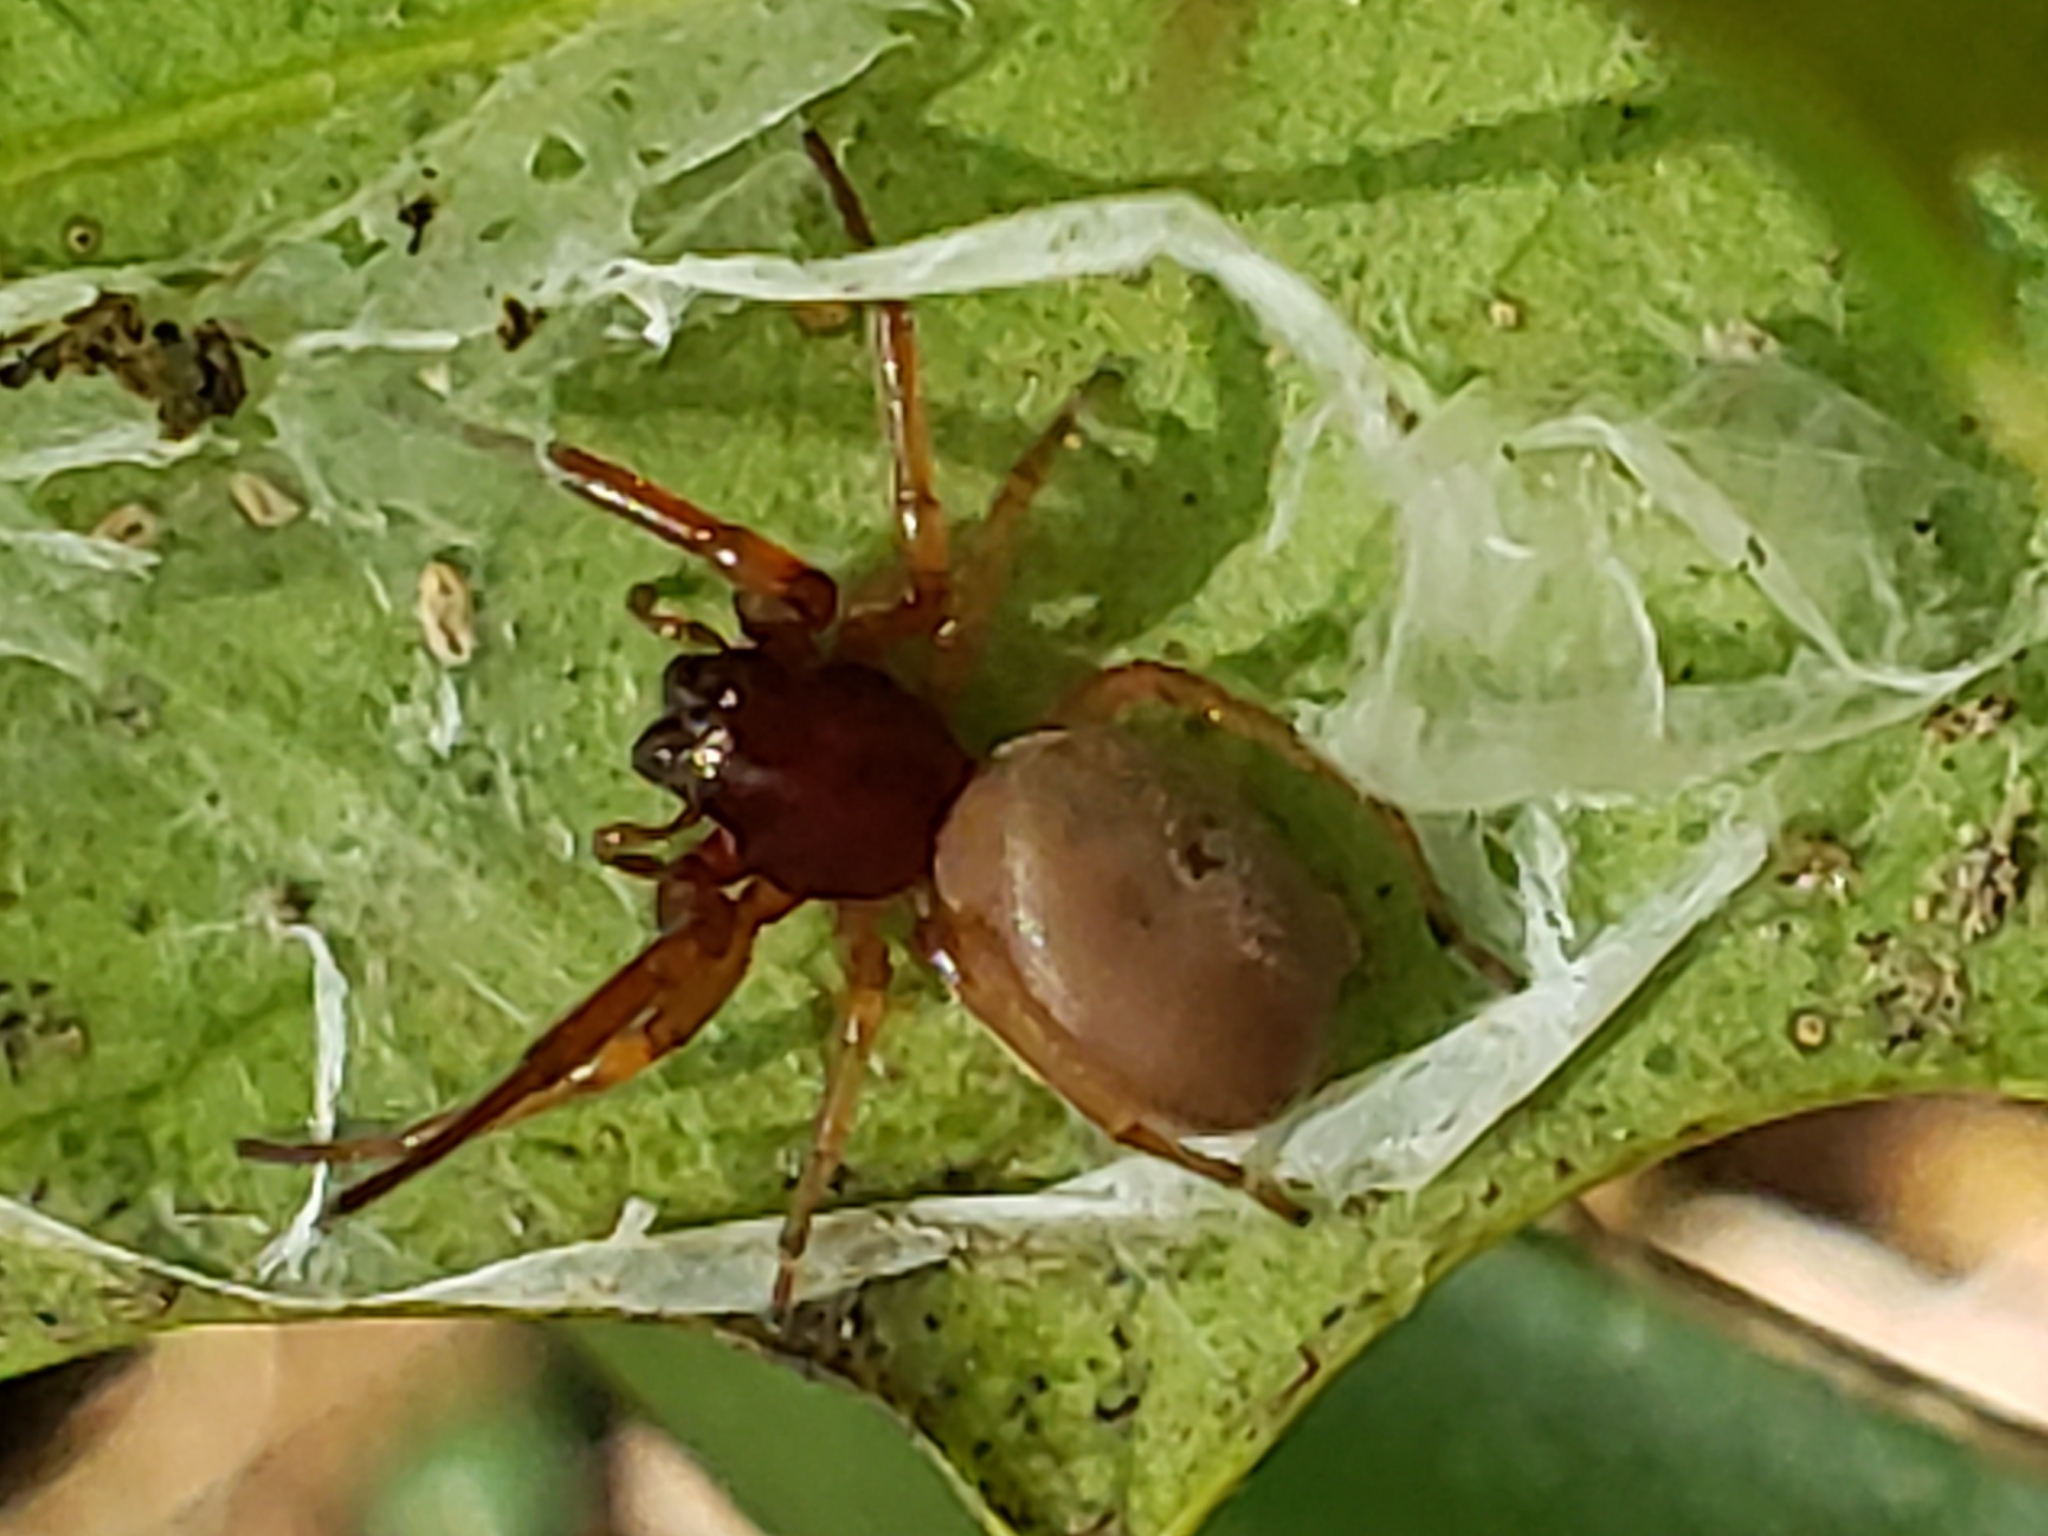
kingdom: Animalia
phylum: Arthropoda
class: Arachnida
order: Araneae
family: Trachelidae
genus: Trachelas
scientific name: Trachelas tranquillus
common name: Broad-faced sac spider
